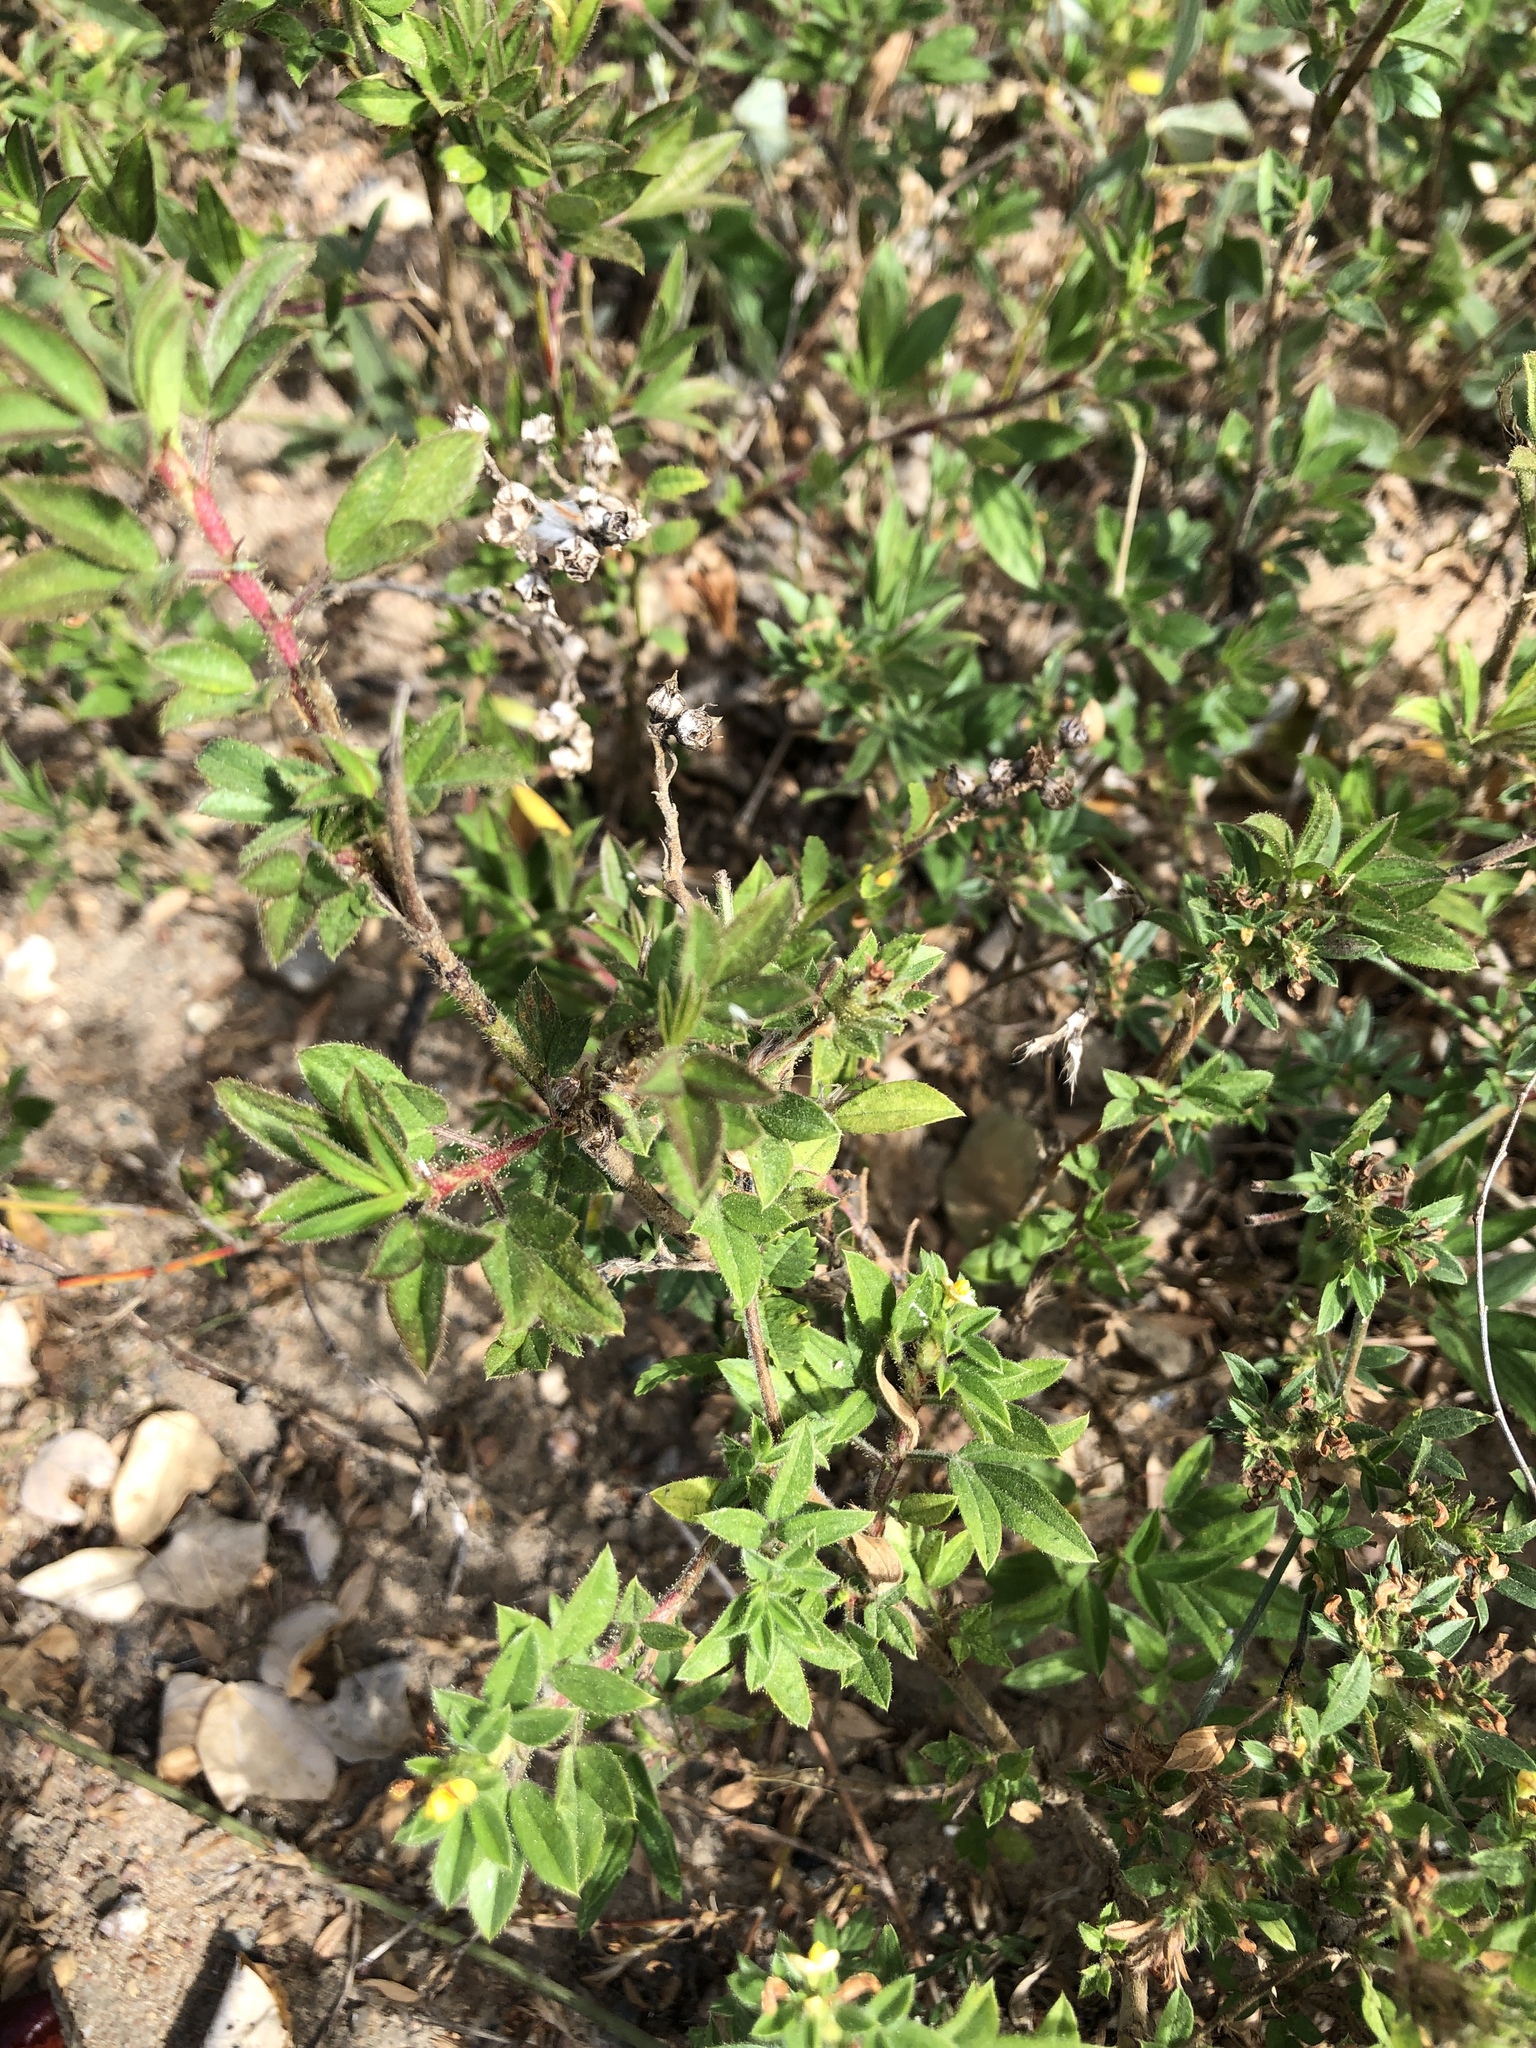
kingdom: Plantae
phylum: Tracheophyta
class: Magnoliopsida
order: Fabales
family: Fabaceae
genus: Stylosanthes
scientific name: Stylosanthes scabra
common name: Pencilflower
